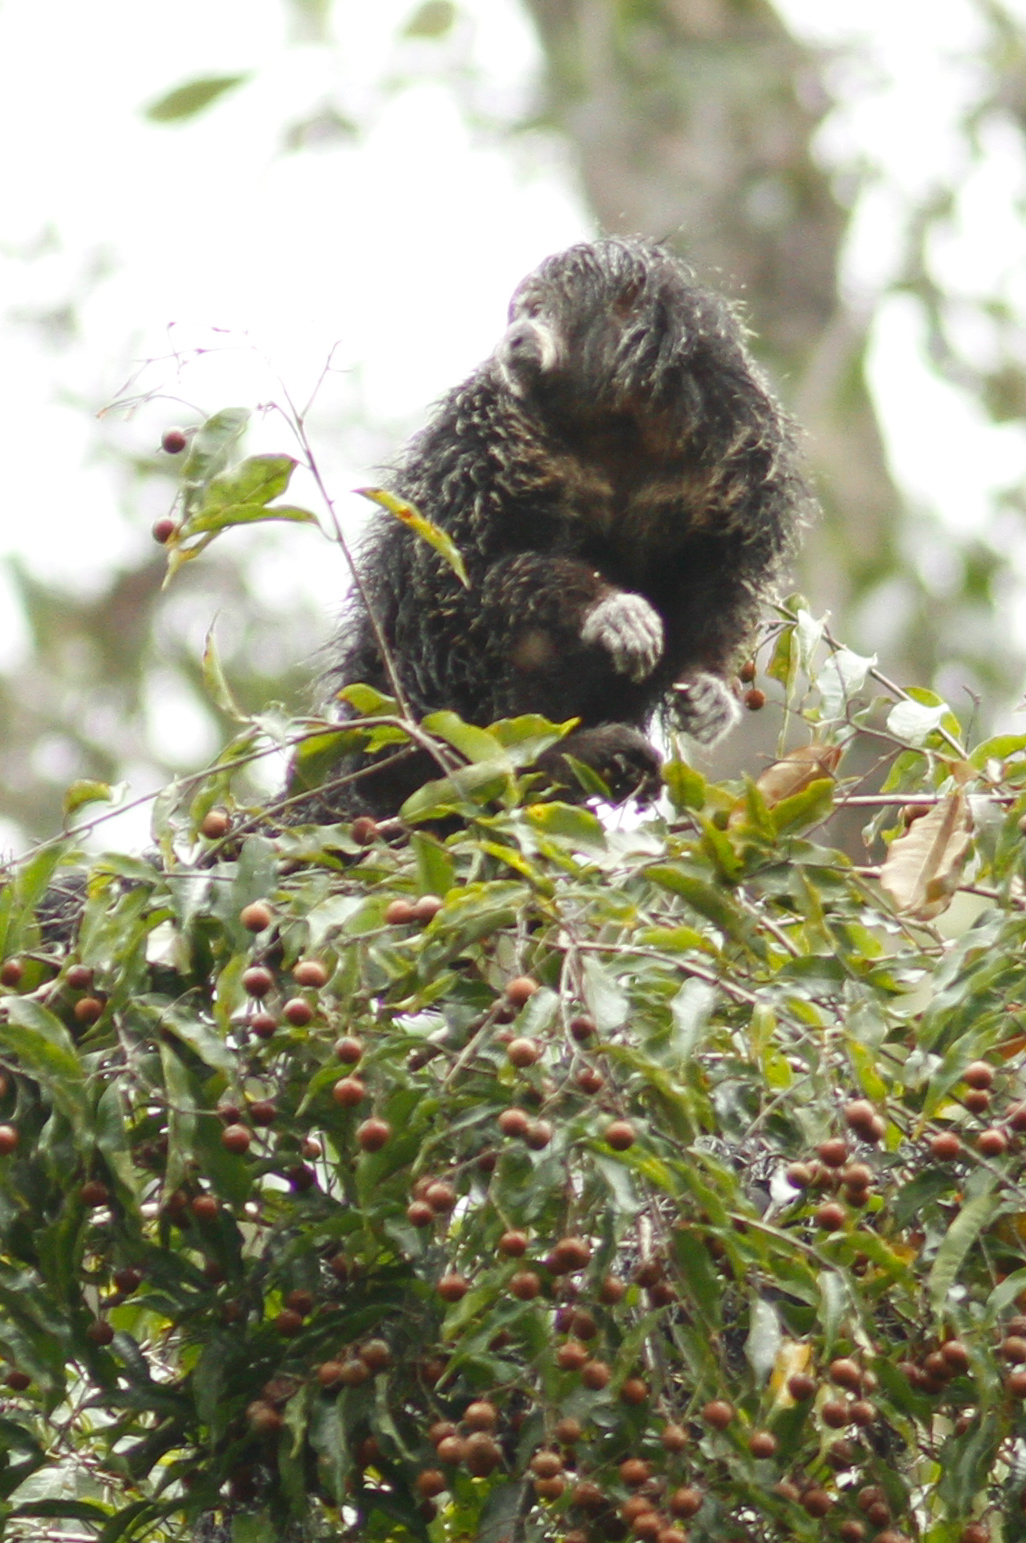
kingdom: Animalia
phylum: Chordata
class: Mammalia
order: Primates
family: Pitheciidae
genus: Pithecia
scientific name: Pithecia milleri
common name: Miller's saki
